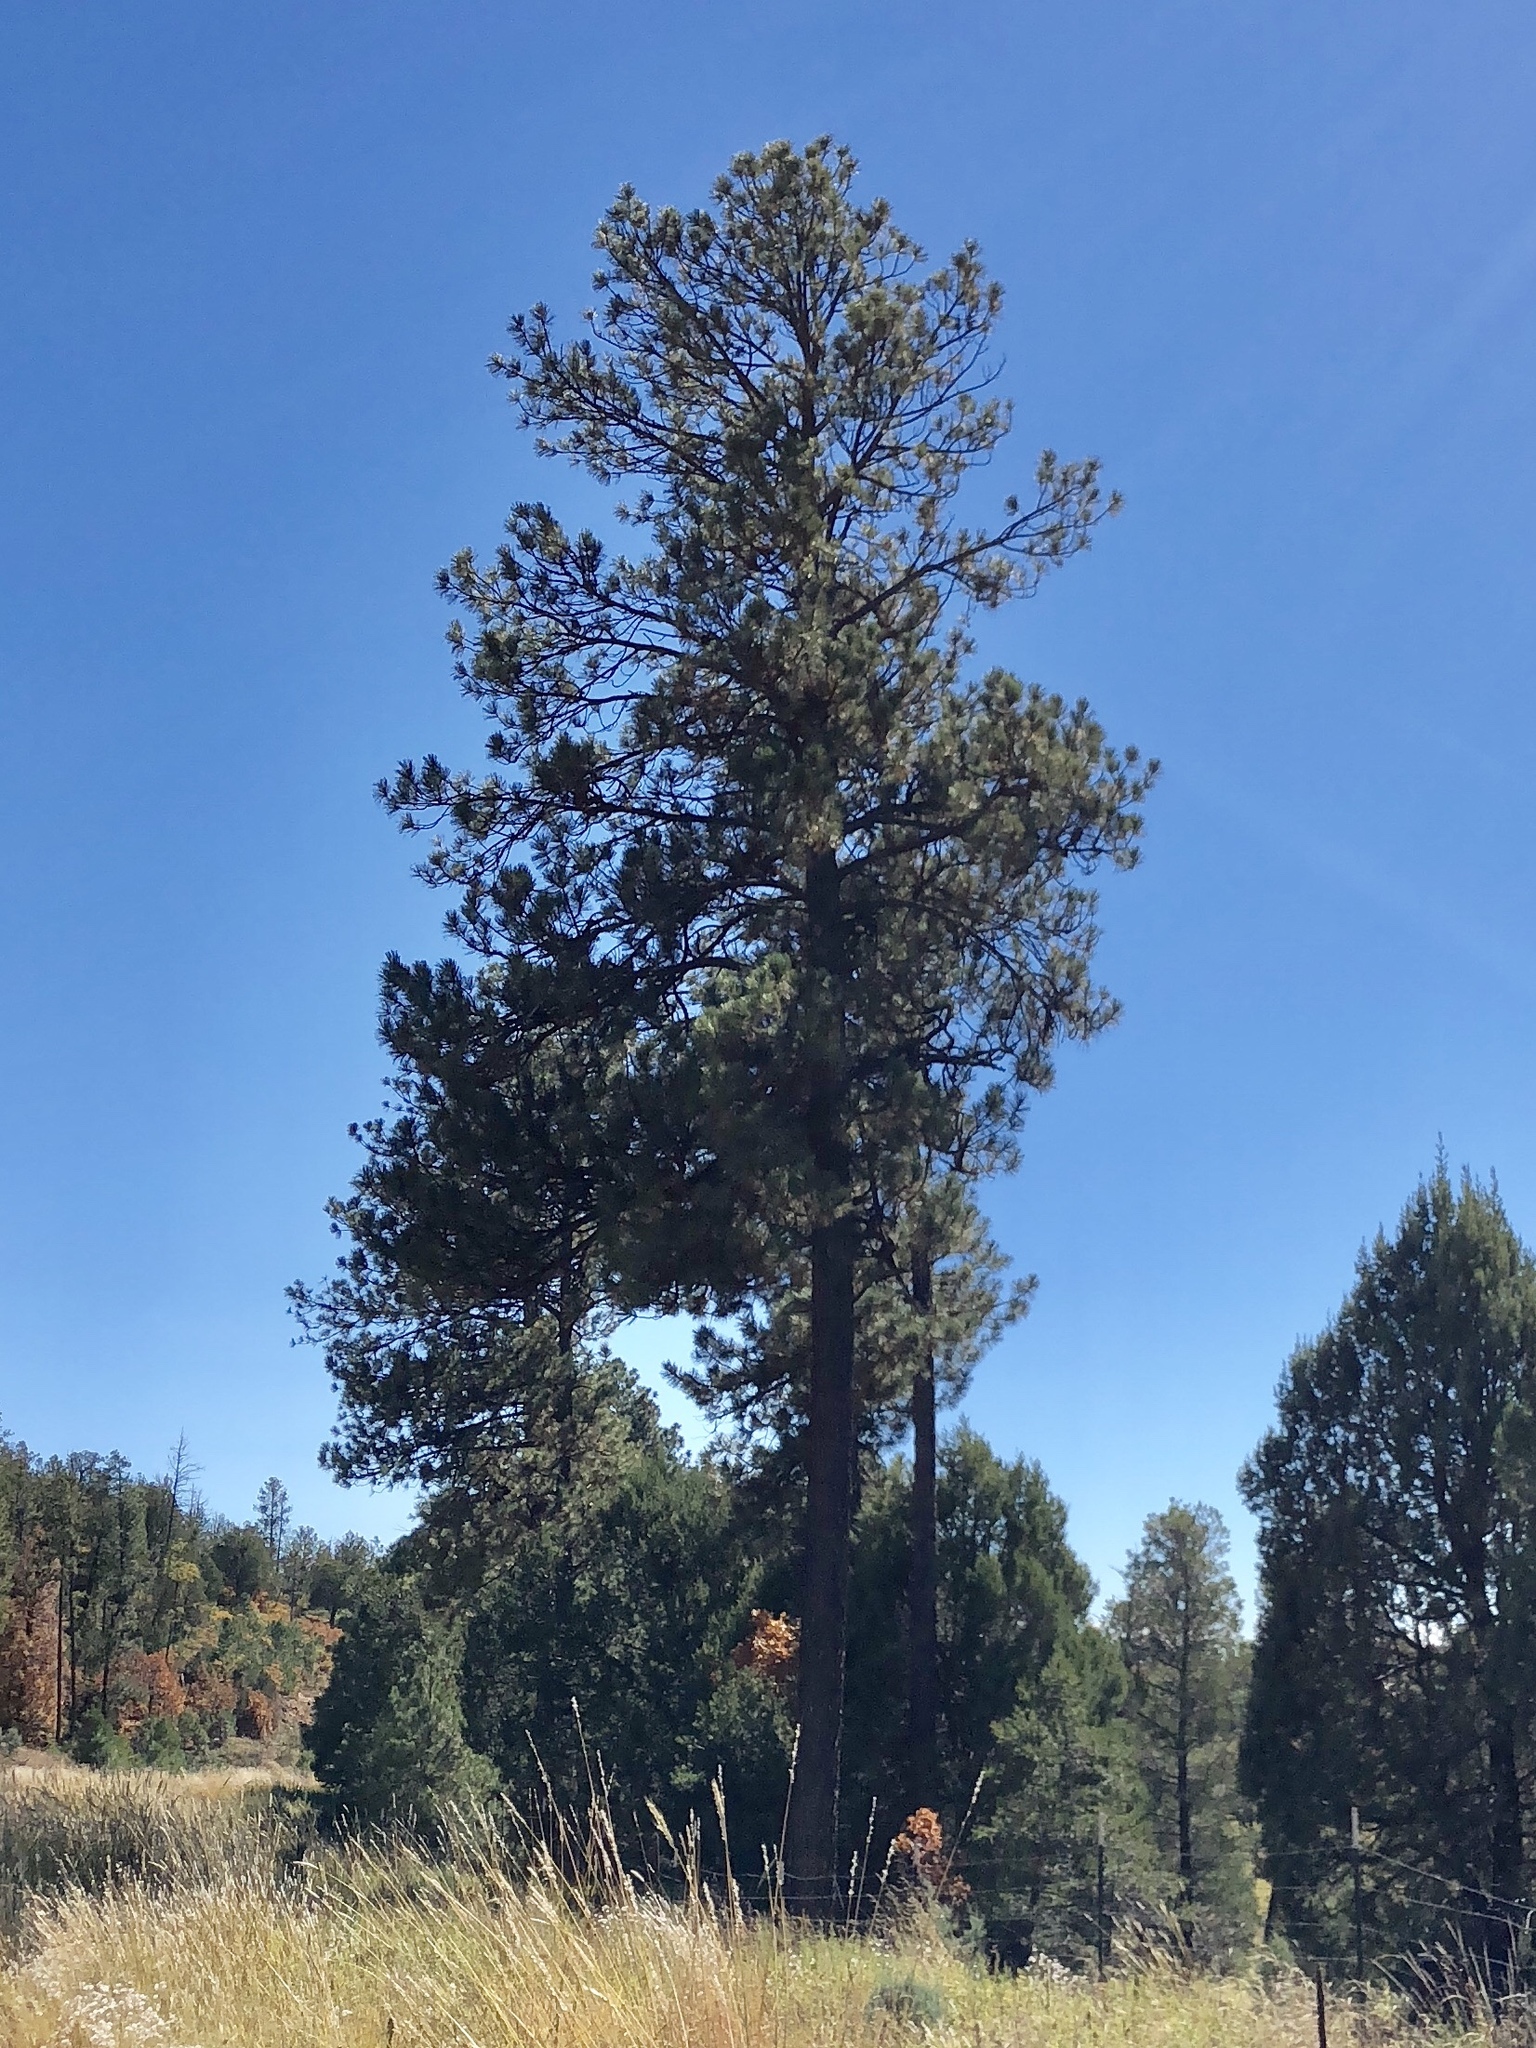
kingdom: Plantae
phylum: Tracheophyta
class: Pinopsida
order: Pinales
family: Pinaceae
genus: Pinus
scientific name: Pinus ponderosa
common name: Western yellow-pine
